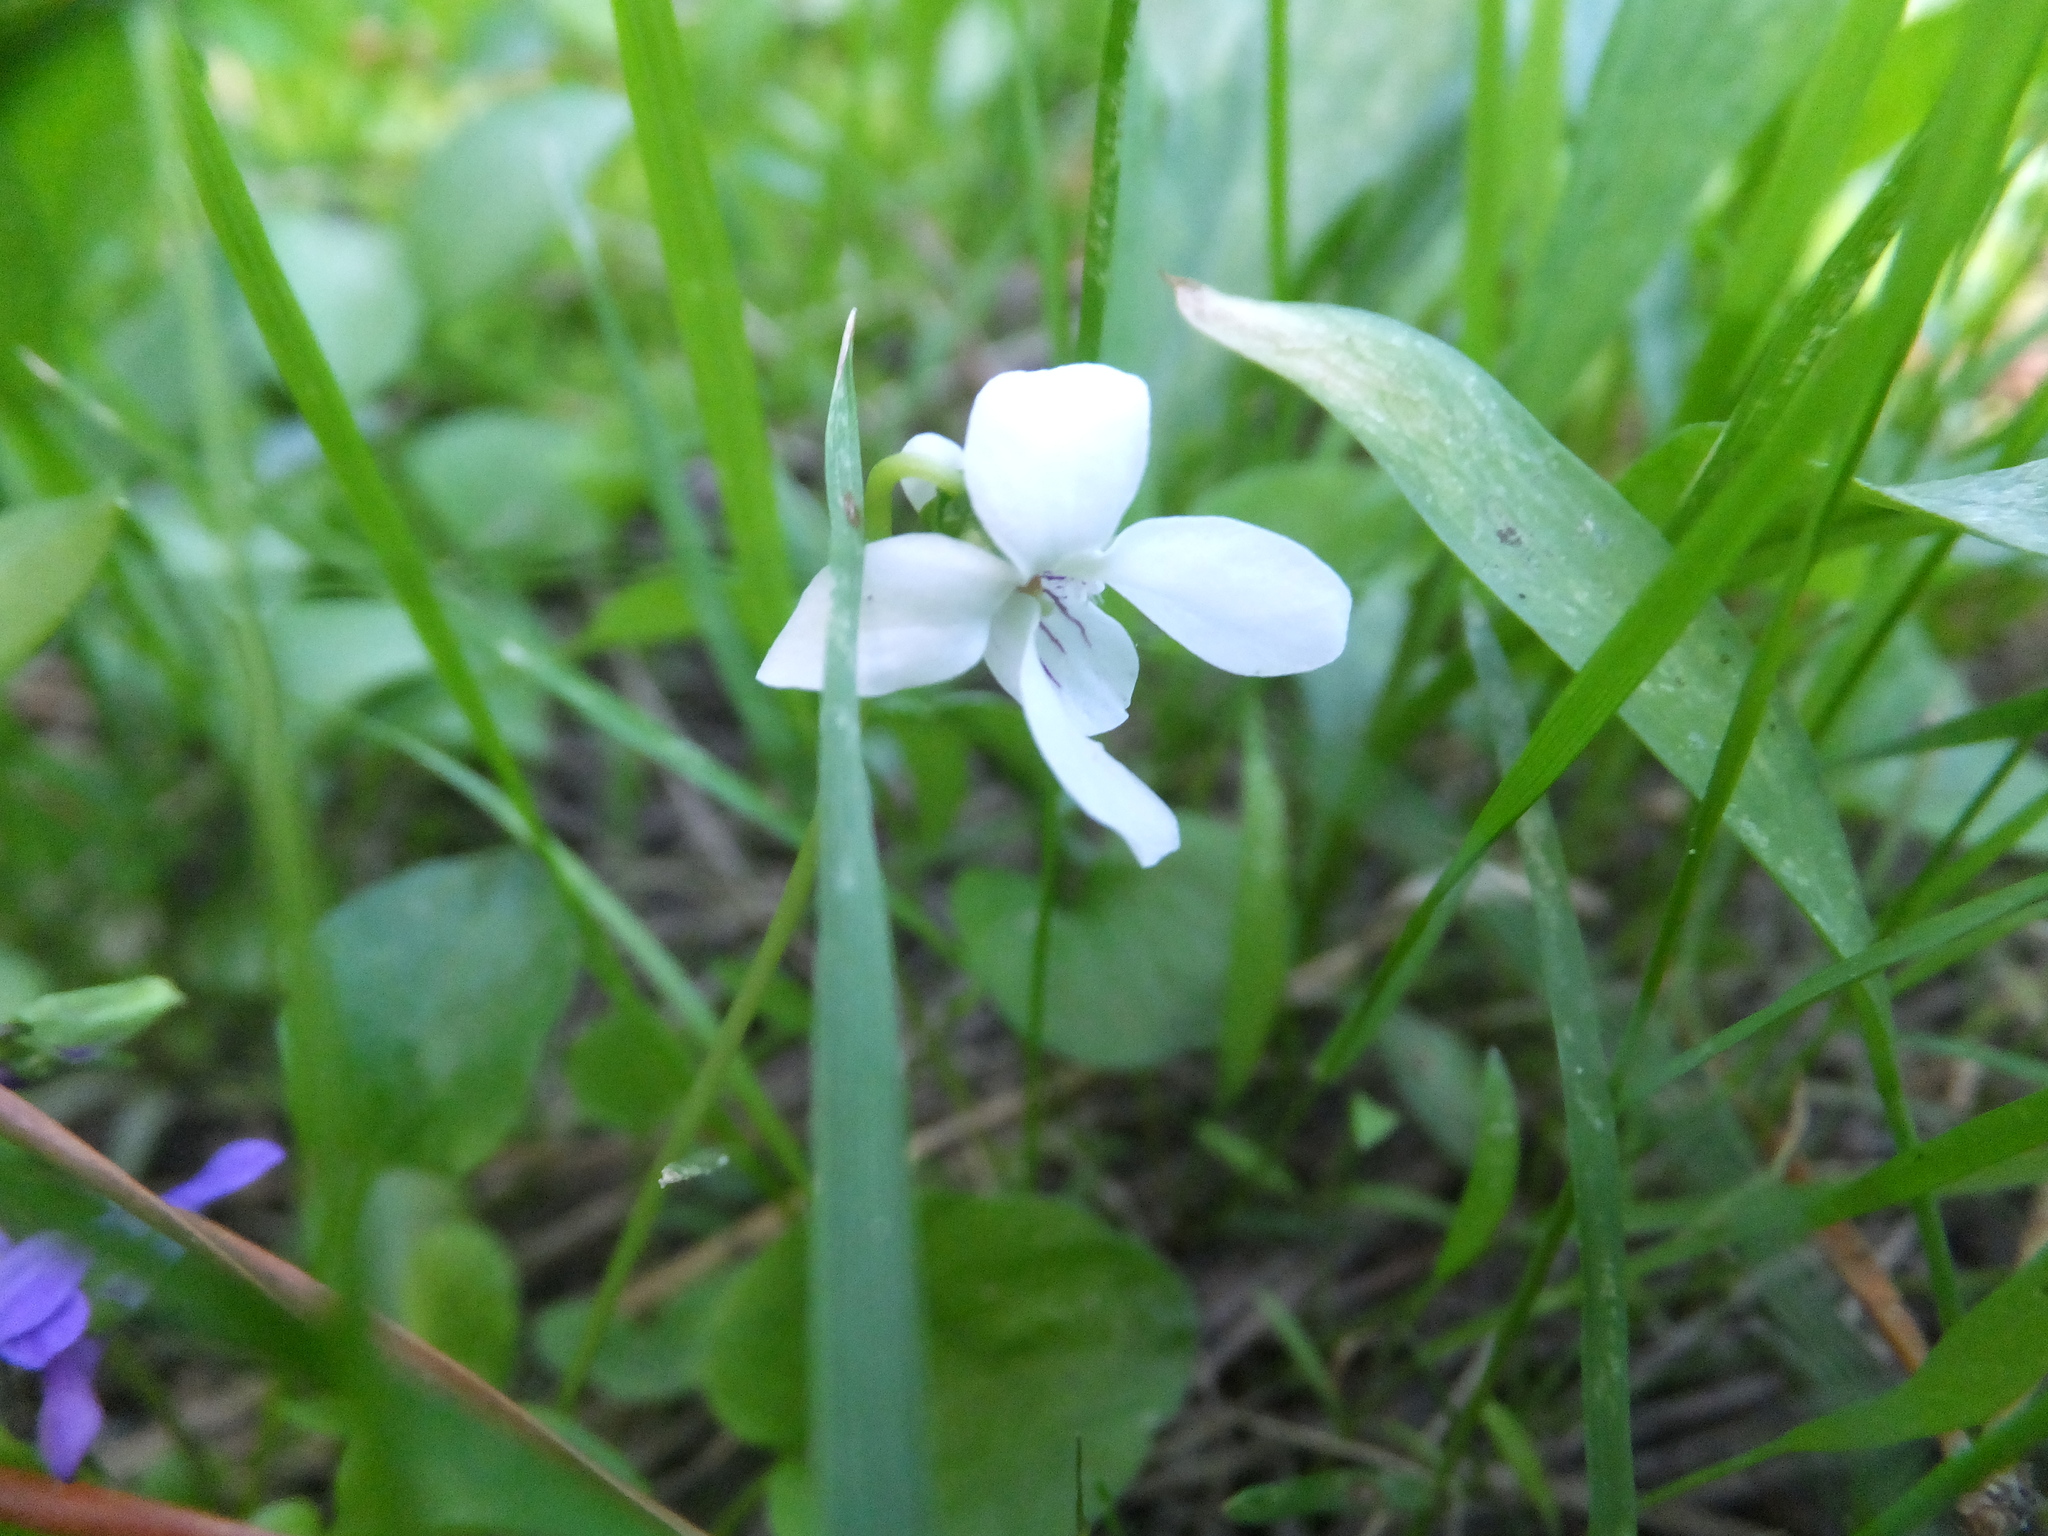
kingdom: Plantae
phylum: Tracheophyta
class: Magnoliopsida
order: Malpighiales
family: Violaceae
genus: Viola
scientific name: Viola macloskeyi
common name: Macloskey's violet
